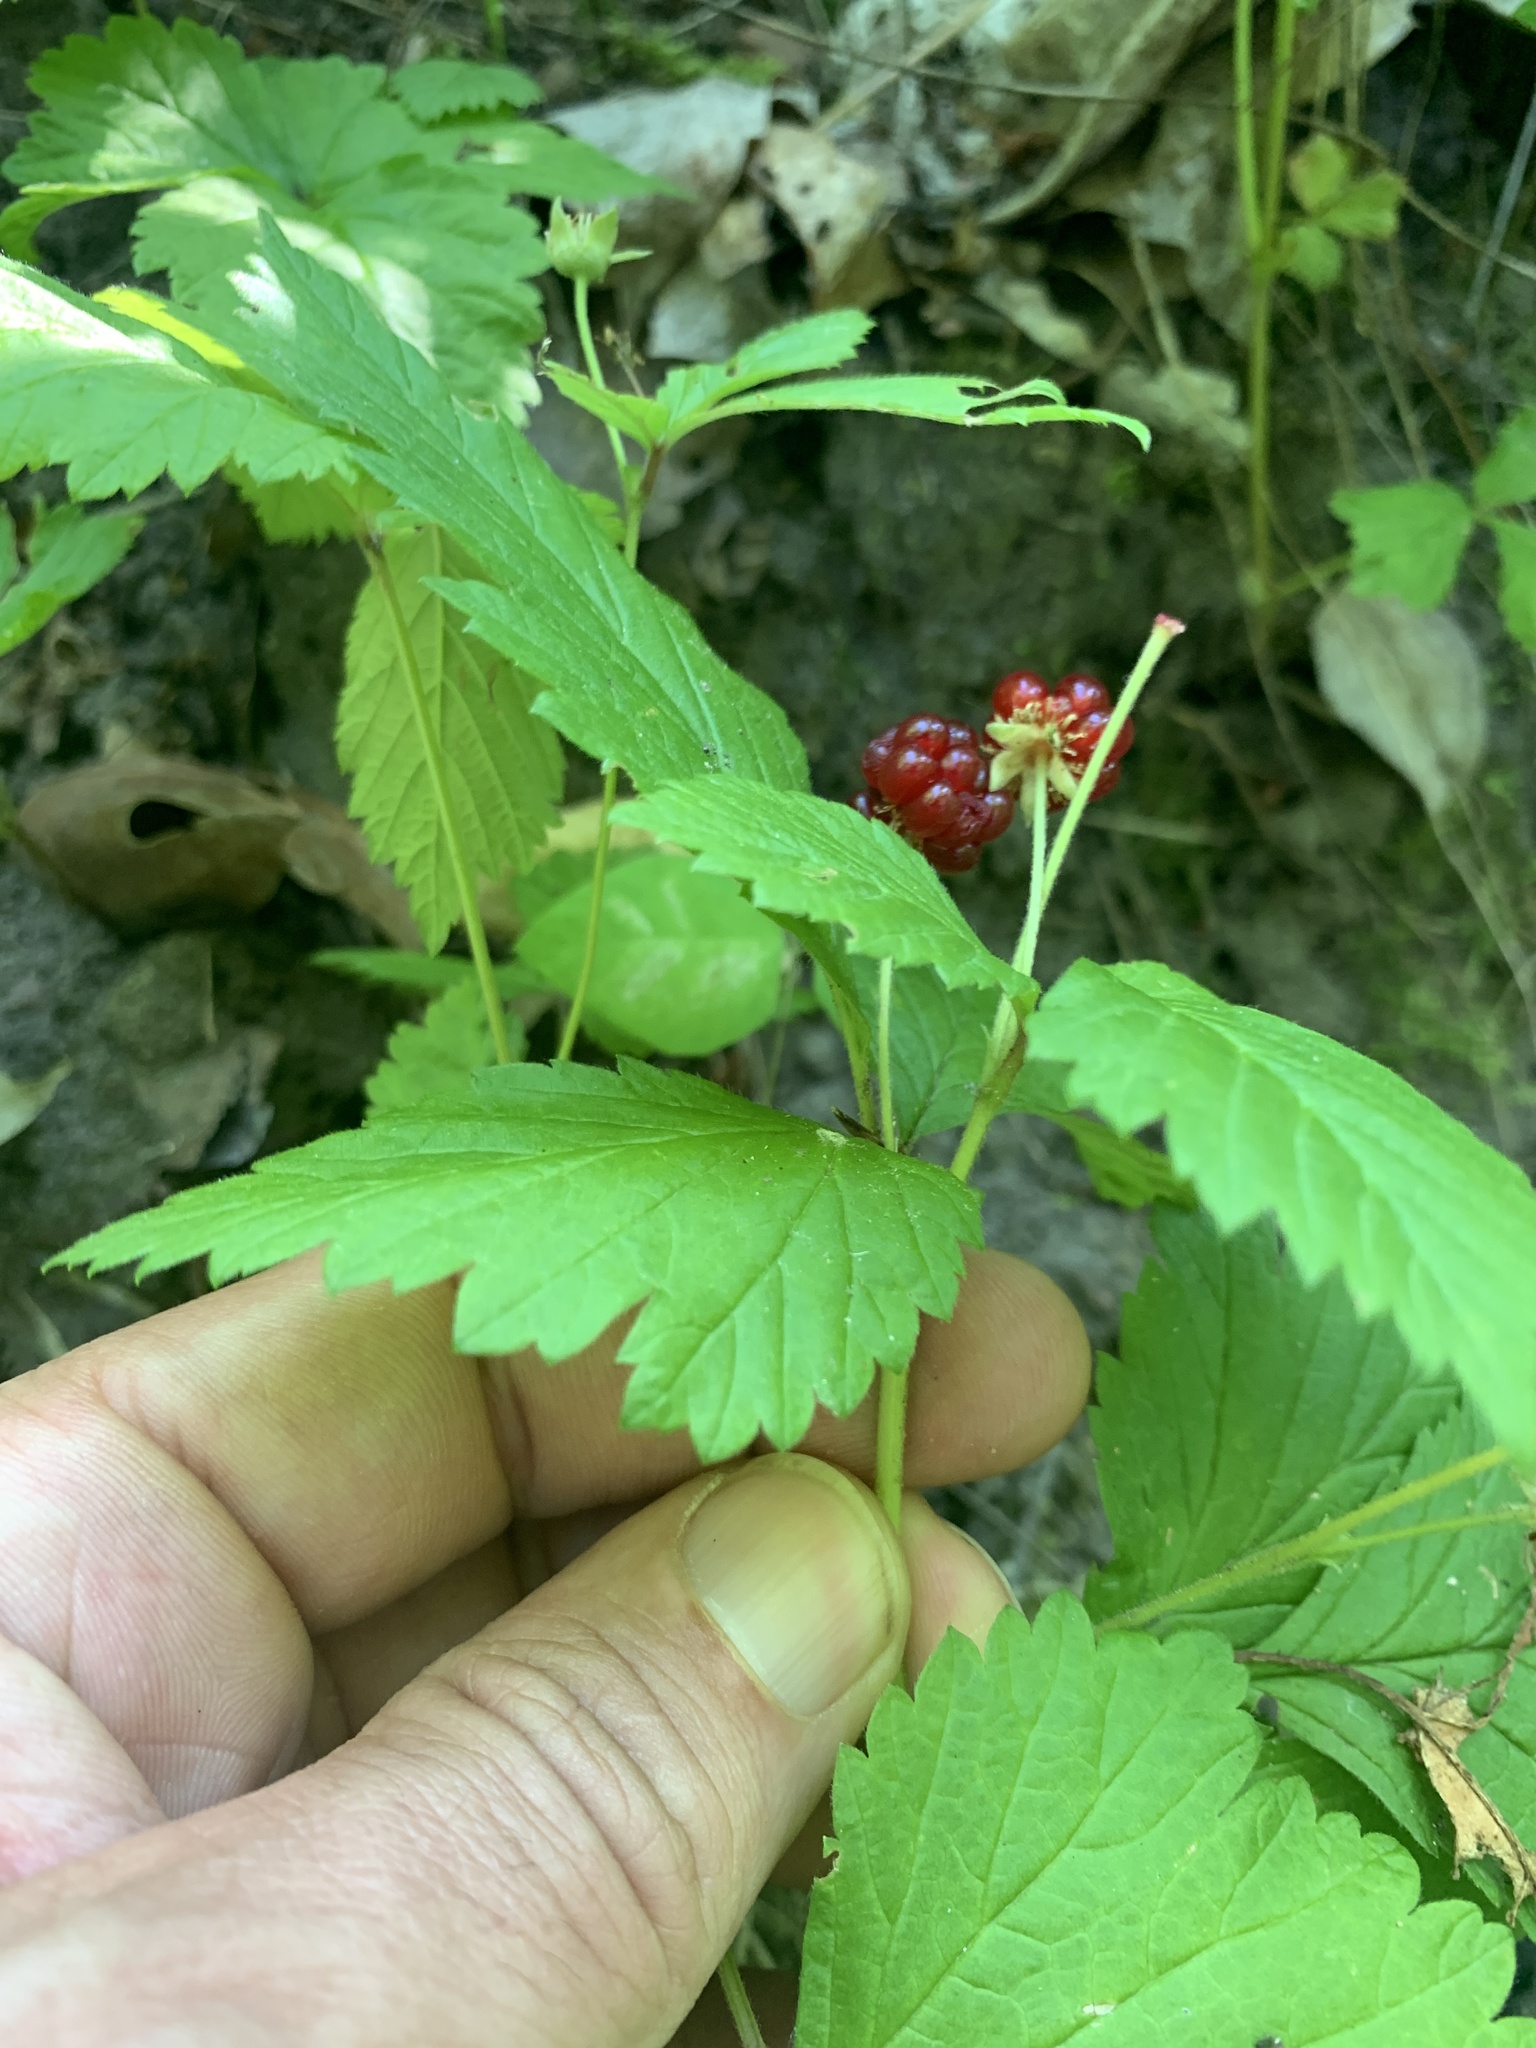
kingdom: Plantae
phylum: Tracheophyta
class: Magnoliopsida
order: Rosales
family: Rosaceae
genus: Rubus
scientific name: Rubus pubescens
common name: Dwarf raspberry
